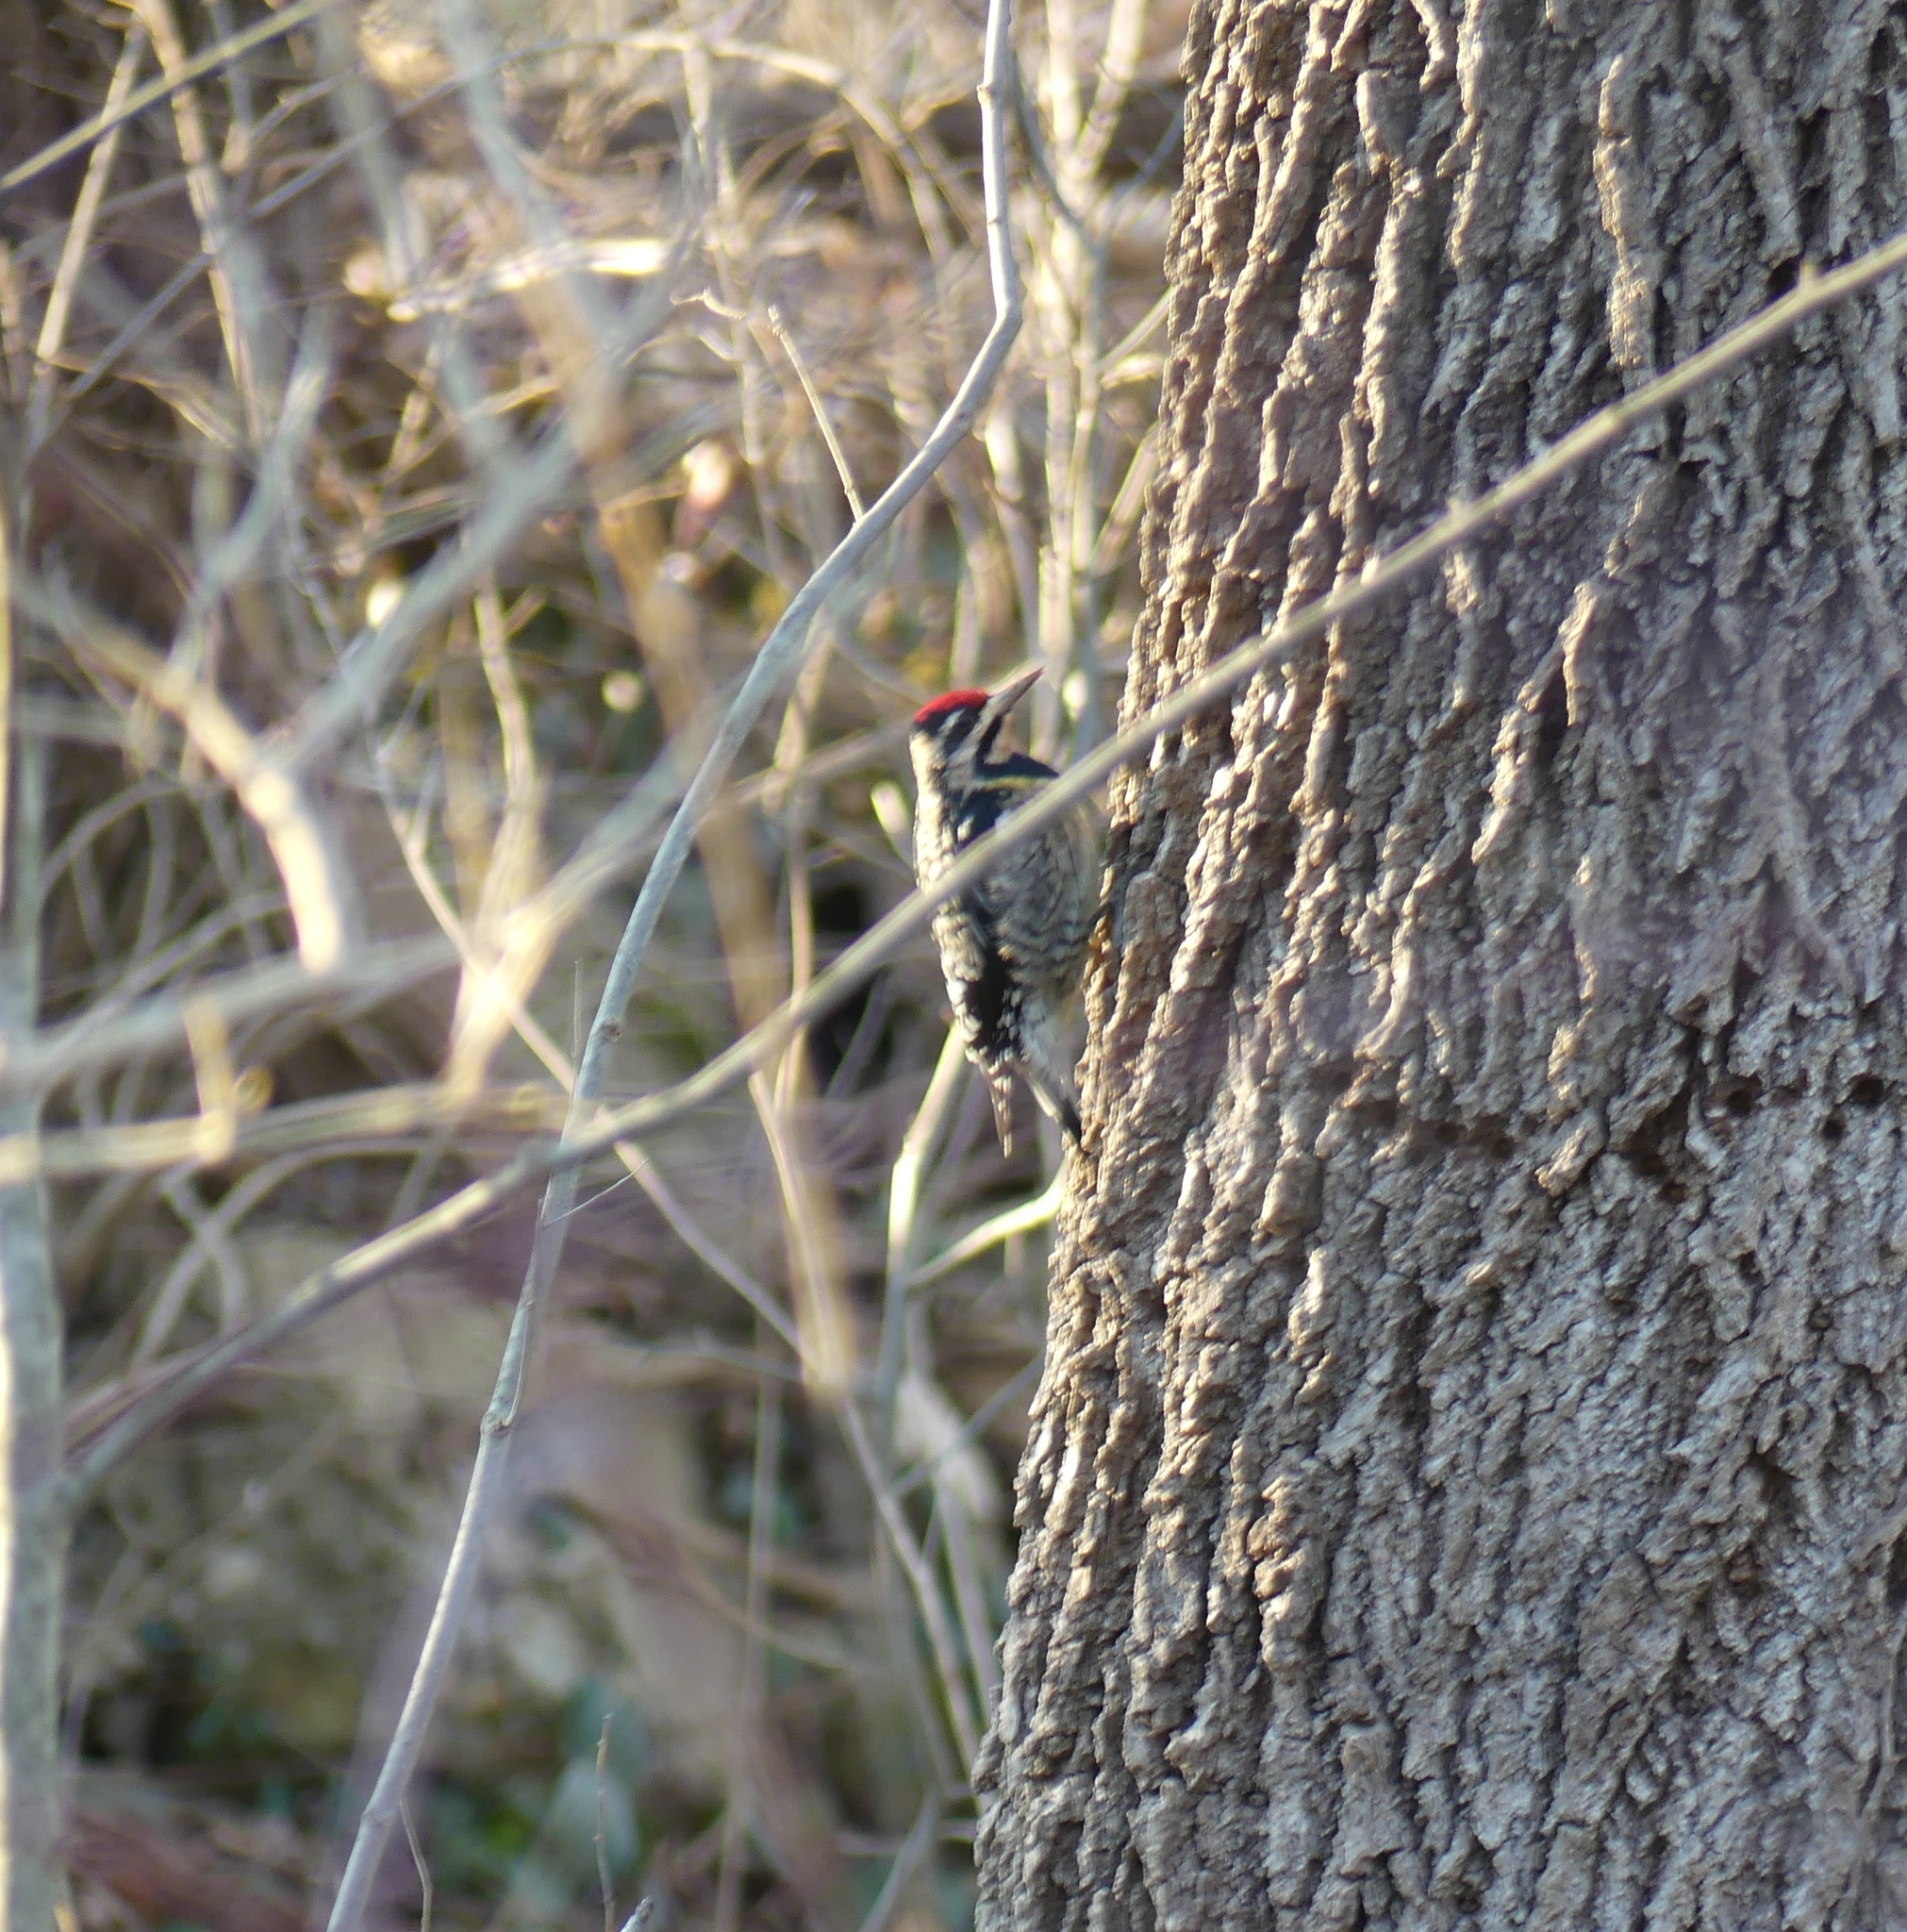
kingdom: Animalia
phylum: Chordata
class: Aves
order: Piciformes
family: Picidae
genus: Sphyrapicus
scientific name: Sphyrapicus varius
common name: Yellow-bellied sapsucker
